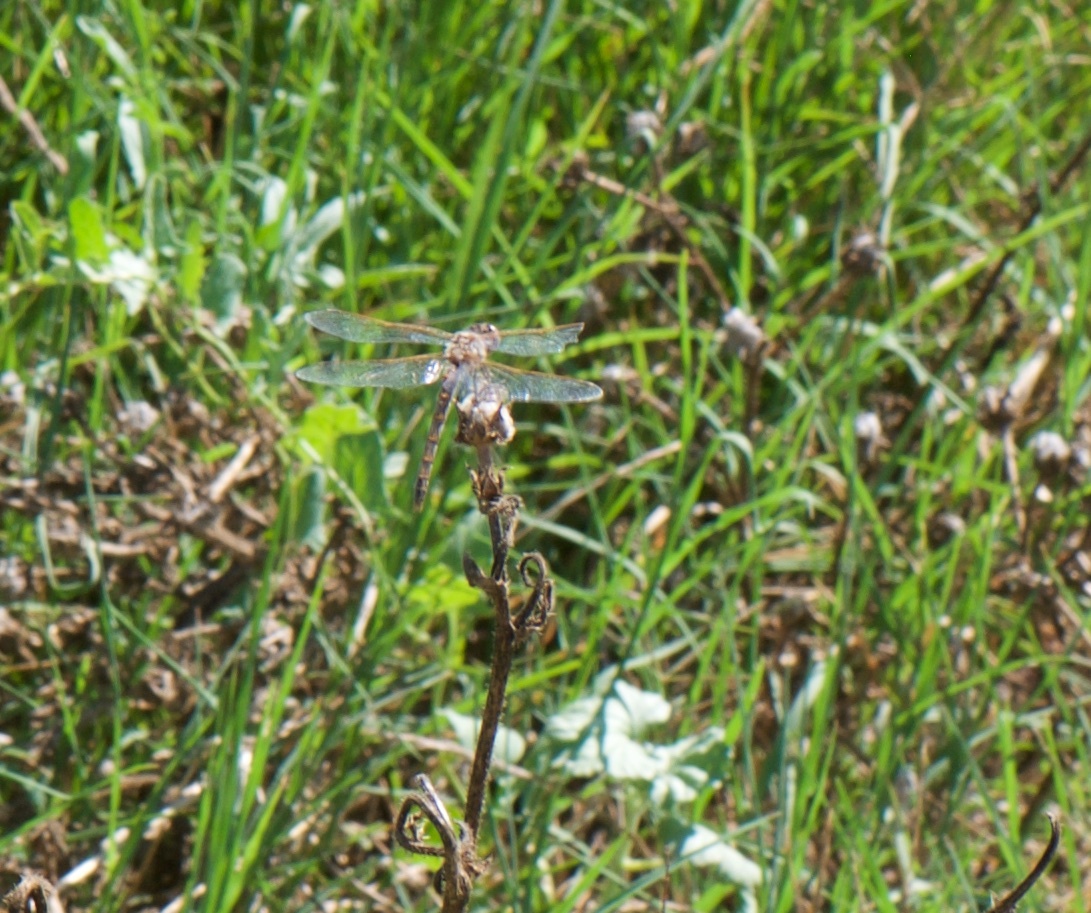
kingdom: Animalia
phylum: Arthropoda
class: Insecta
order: Odonata
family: Libellulidae
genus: Sympetrum
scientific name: Sympetrum corruptum
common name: Variegated meadowhawk
